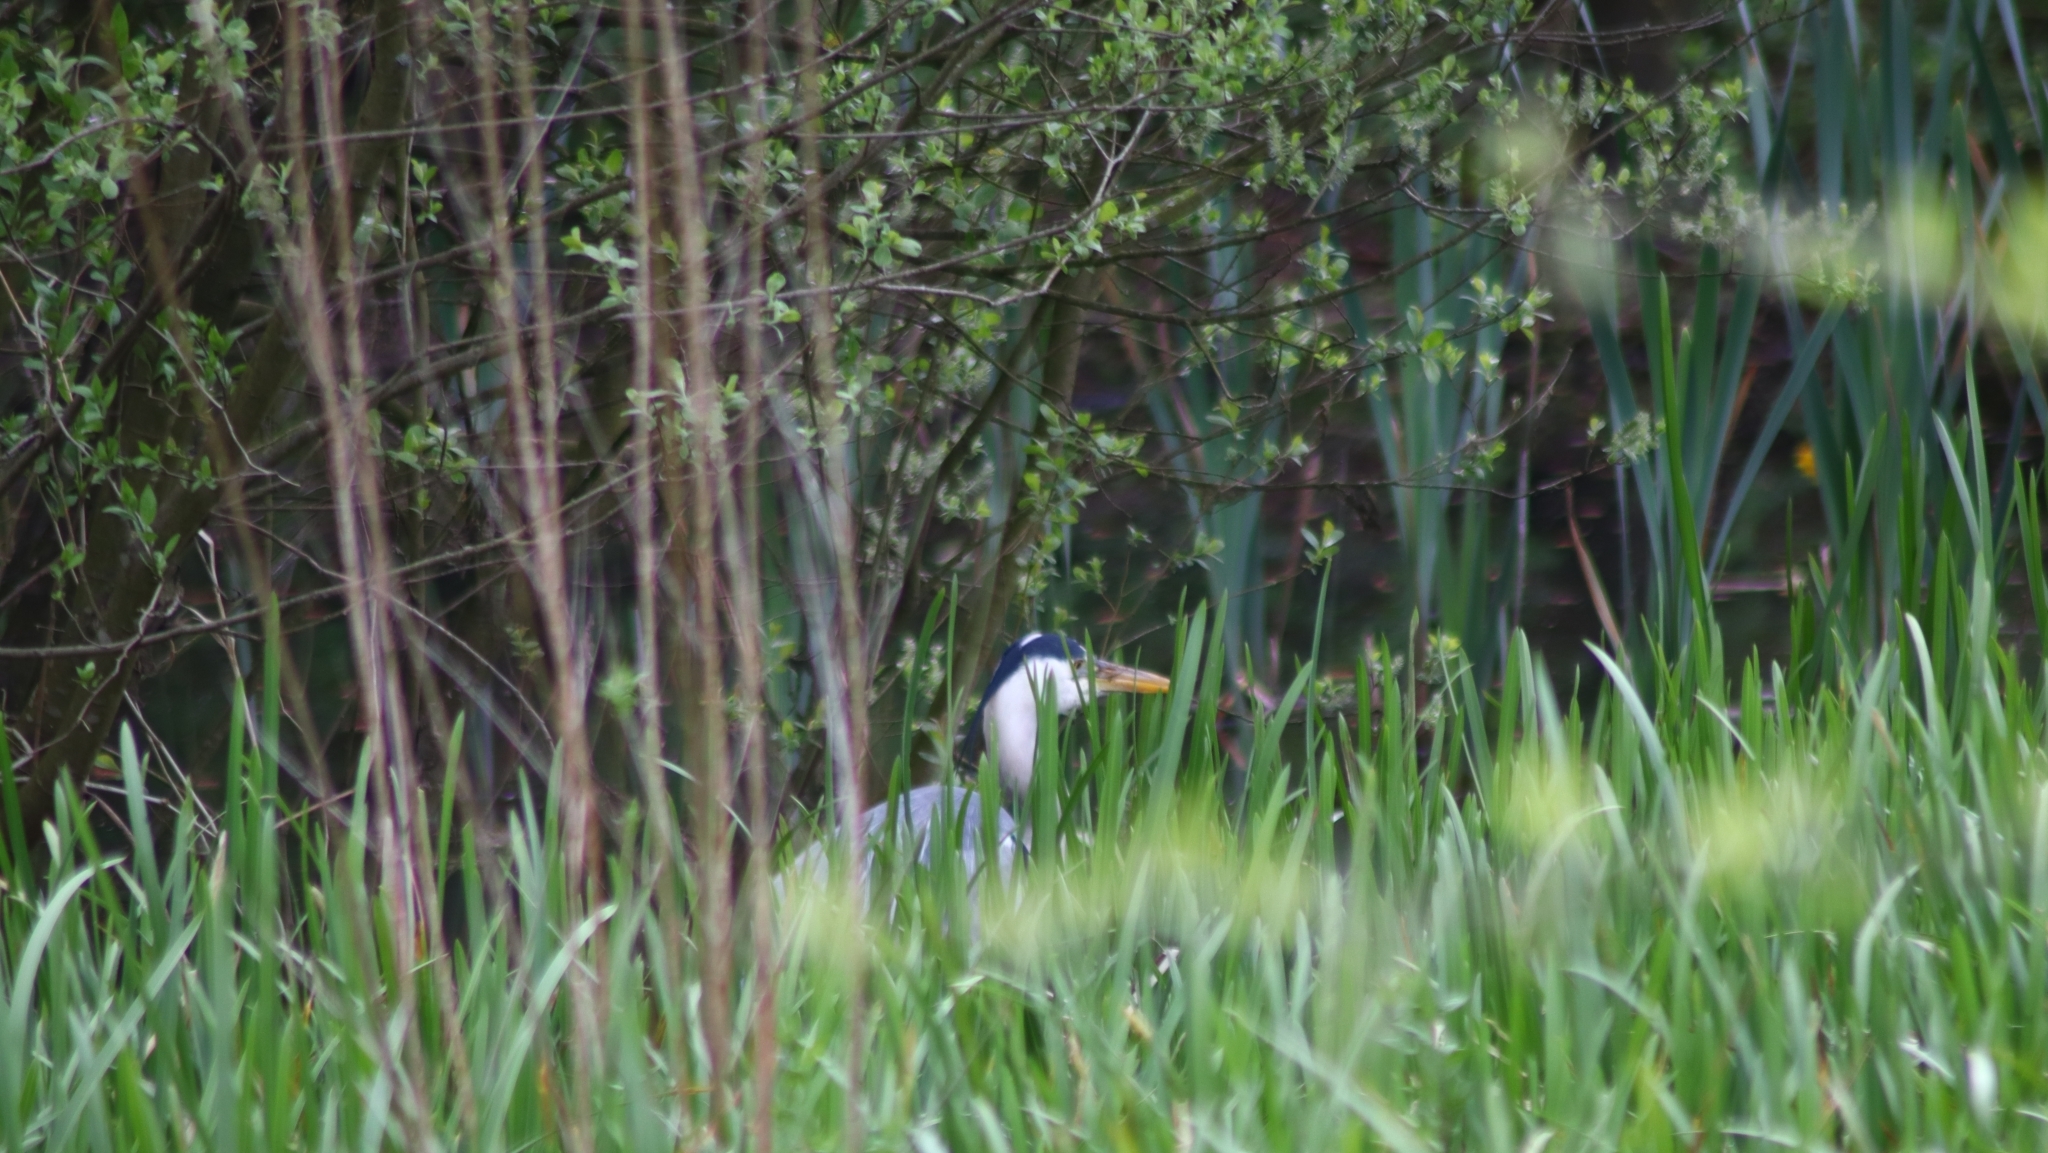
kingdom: Animalia
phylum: Chordata
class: Aves
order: Pelecaniformes
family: Ardeidae
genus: Ardea
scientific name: Ardea cinerea
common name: Grey heron
